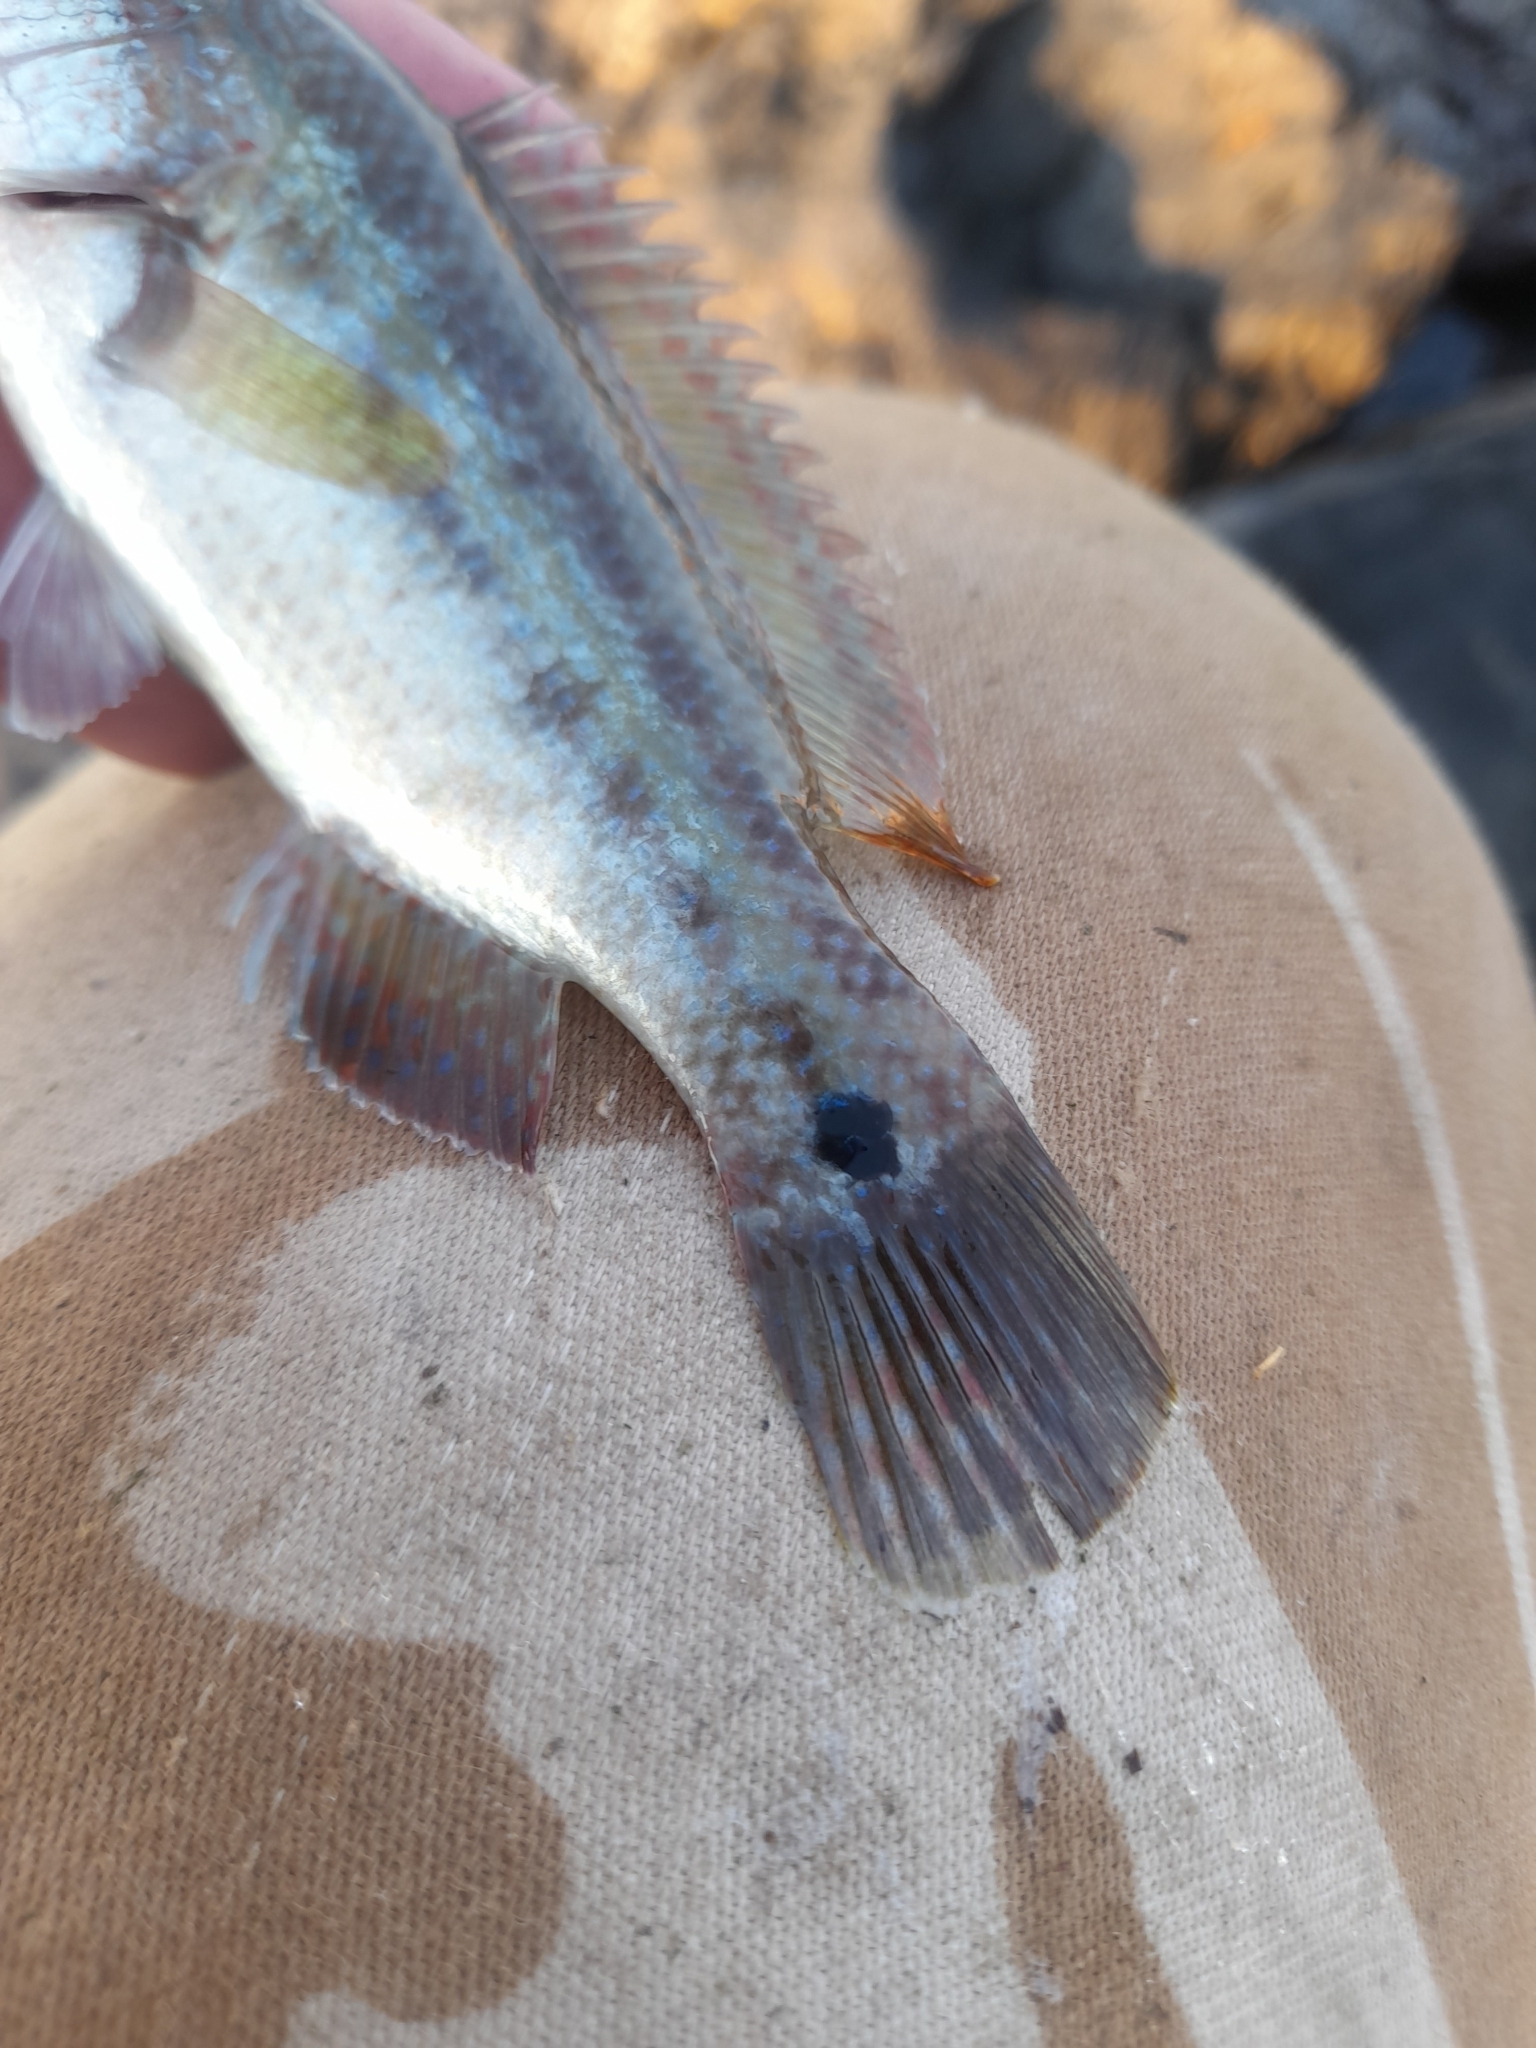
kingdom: Animalia
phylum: Chordata
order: Perciformes
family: Labridae
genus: Symphodus
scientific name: Symphodus tinca
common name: Peacock wrasse
